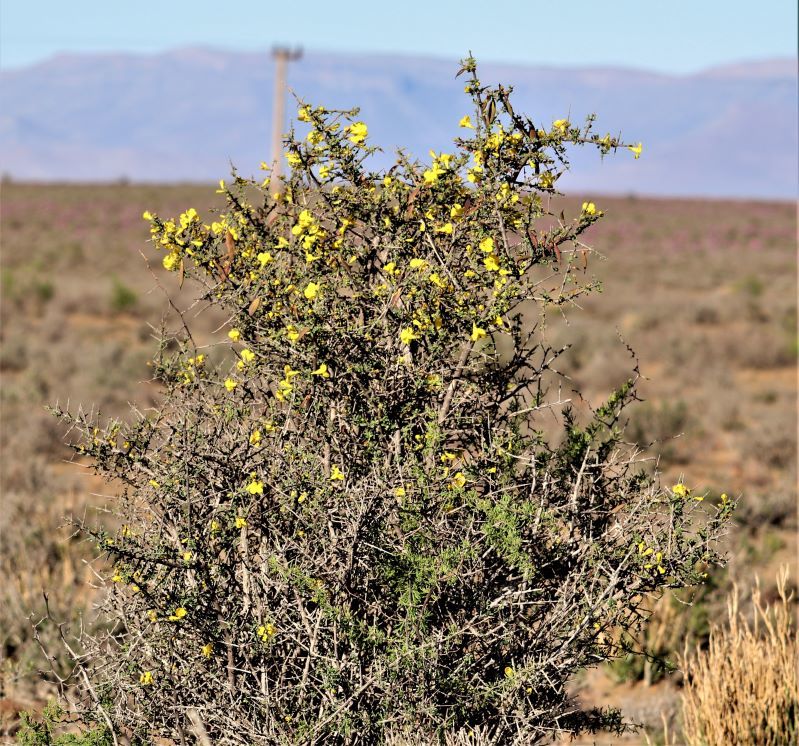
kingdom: Plantae
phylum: Tracheophyta
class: Magnoliopsida
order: Lamiales
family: Bignoniaceae
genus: Rhigozum
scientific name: Rhigozum obovatum
